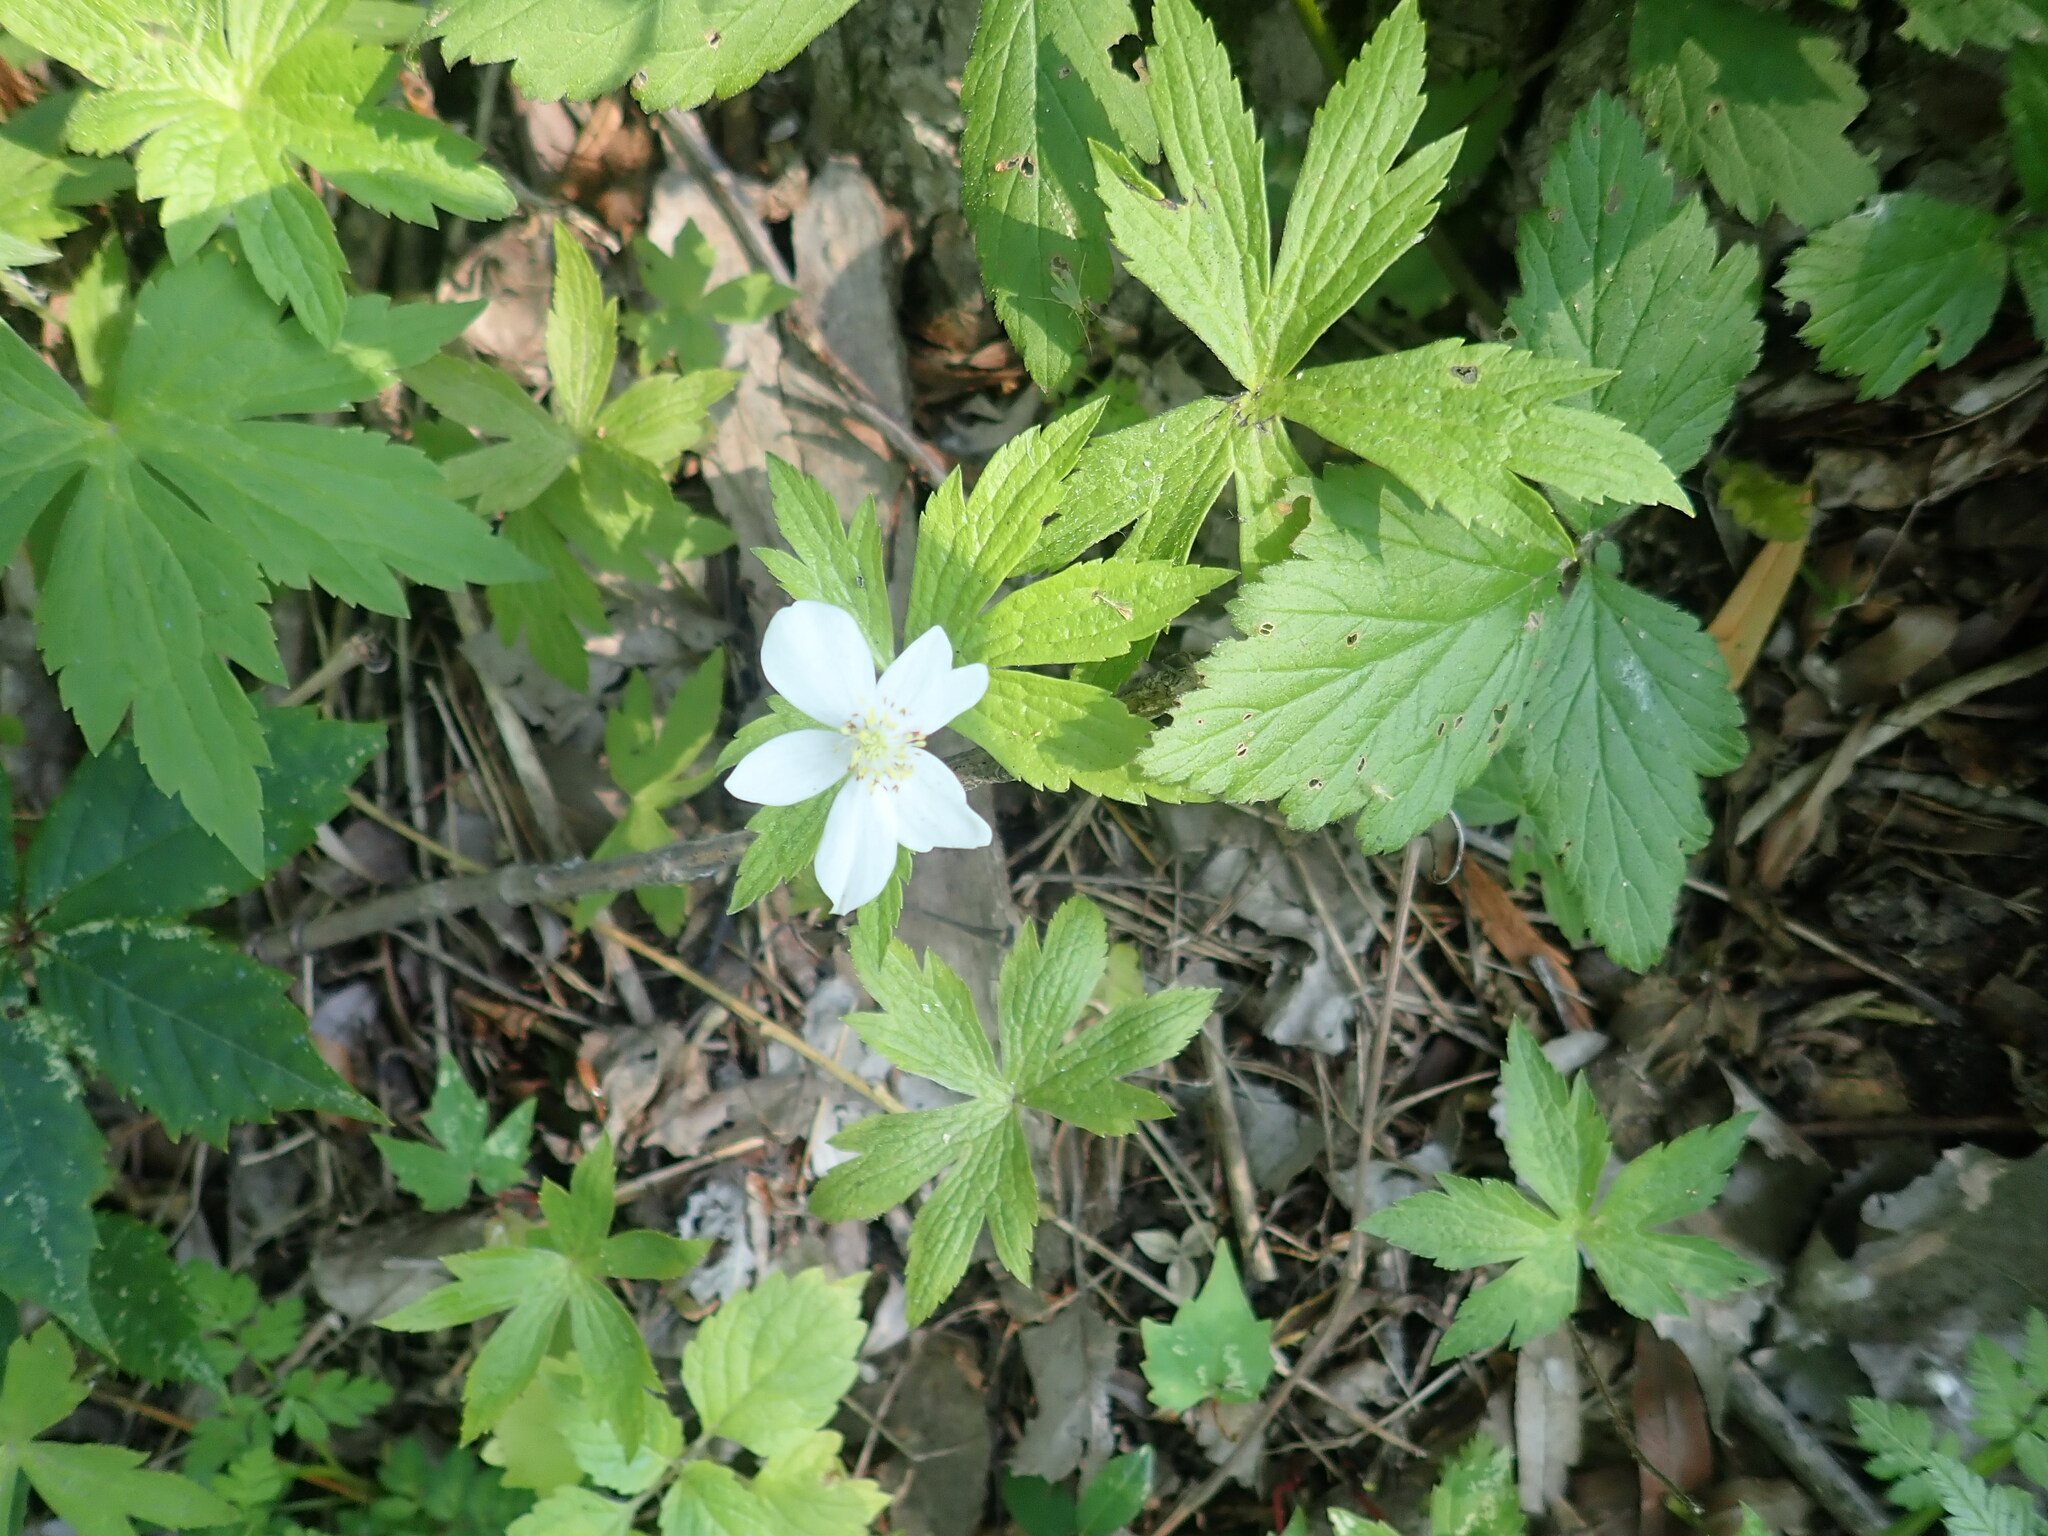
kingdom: Plantae
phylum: Tracheophyta
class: Magnoliopsida
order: Ranunculales
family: Ranunculaceae
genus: Anemonastrum
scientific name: Anemonastrum canadense
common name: Canada anemone
